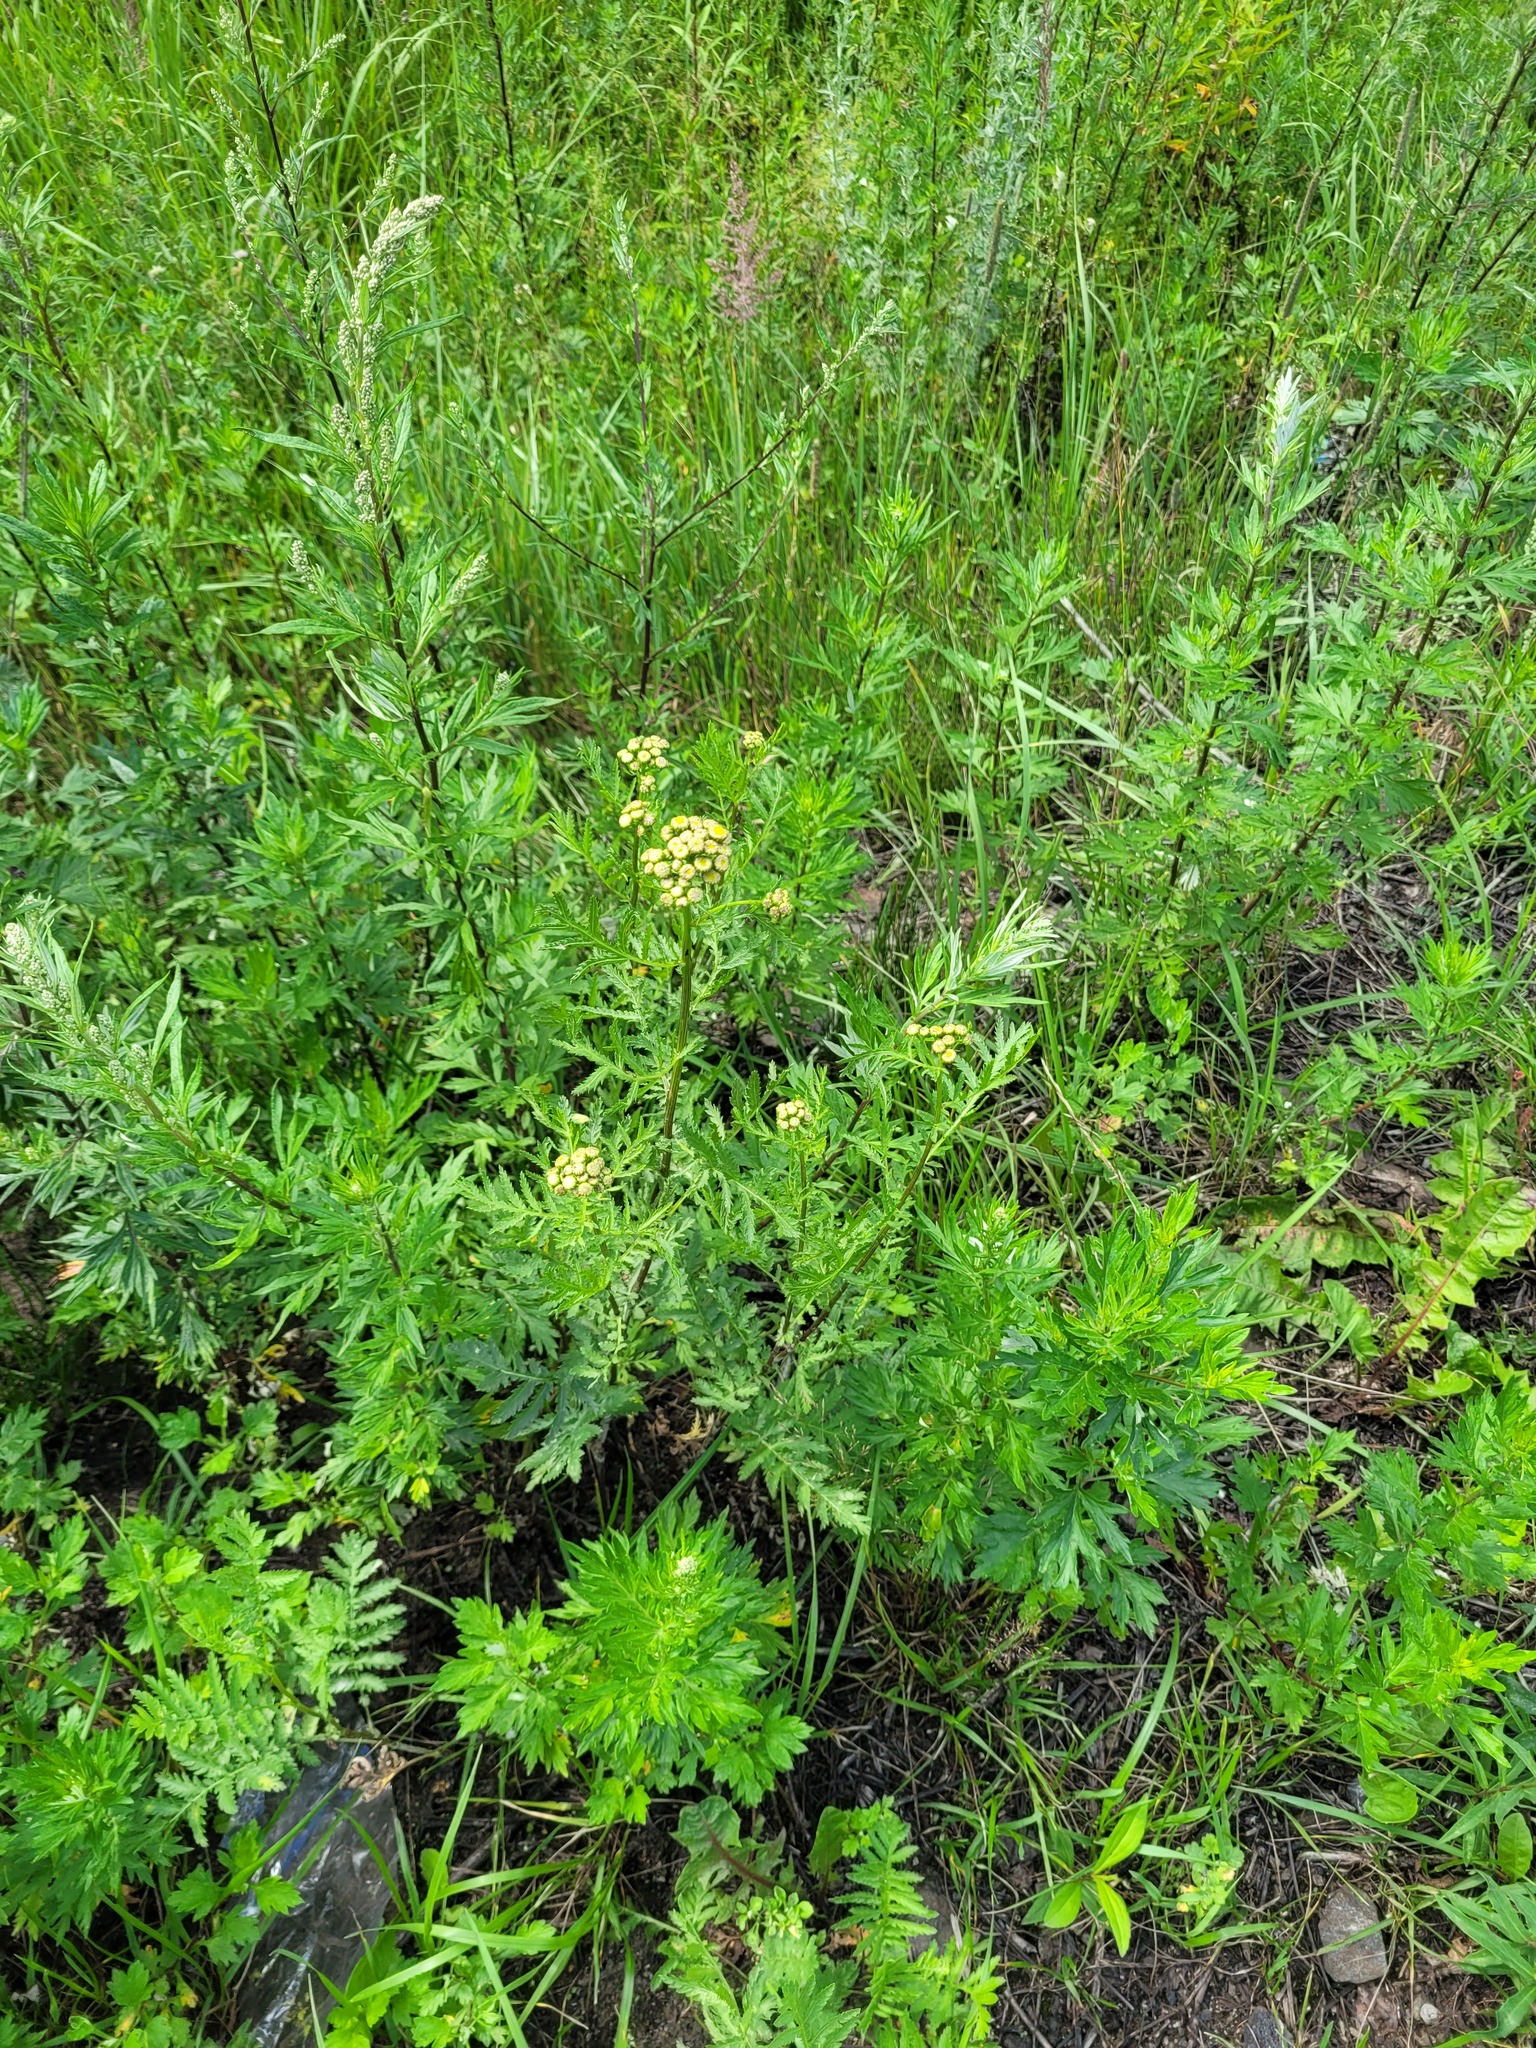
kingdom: Plantae
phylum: Tracheophyta
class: Magnoliopsida
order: Asterales
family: Asteraceae
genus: Tanacetum
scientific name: Tanacetum vulgare
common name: Common tansy
